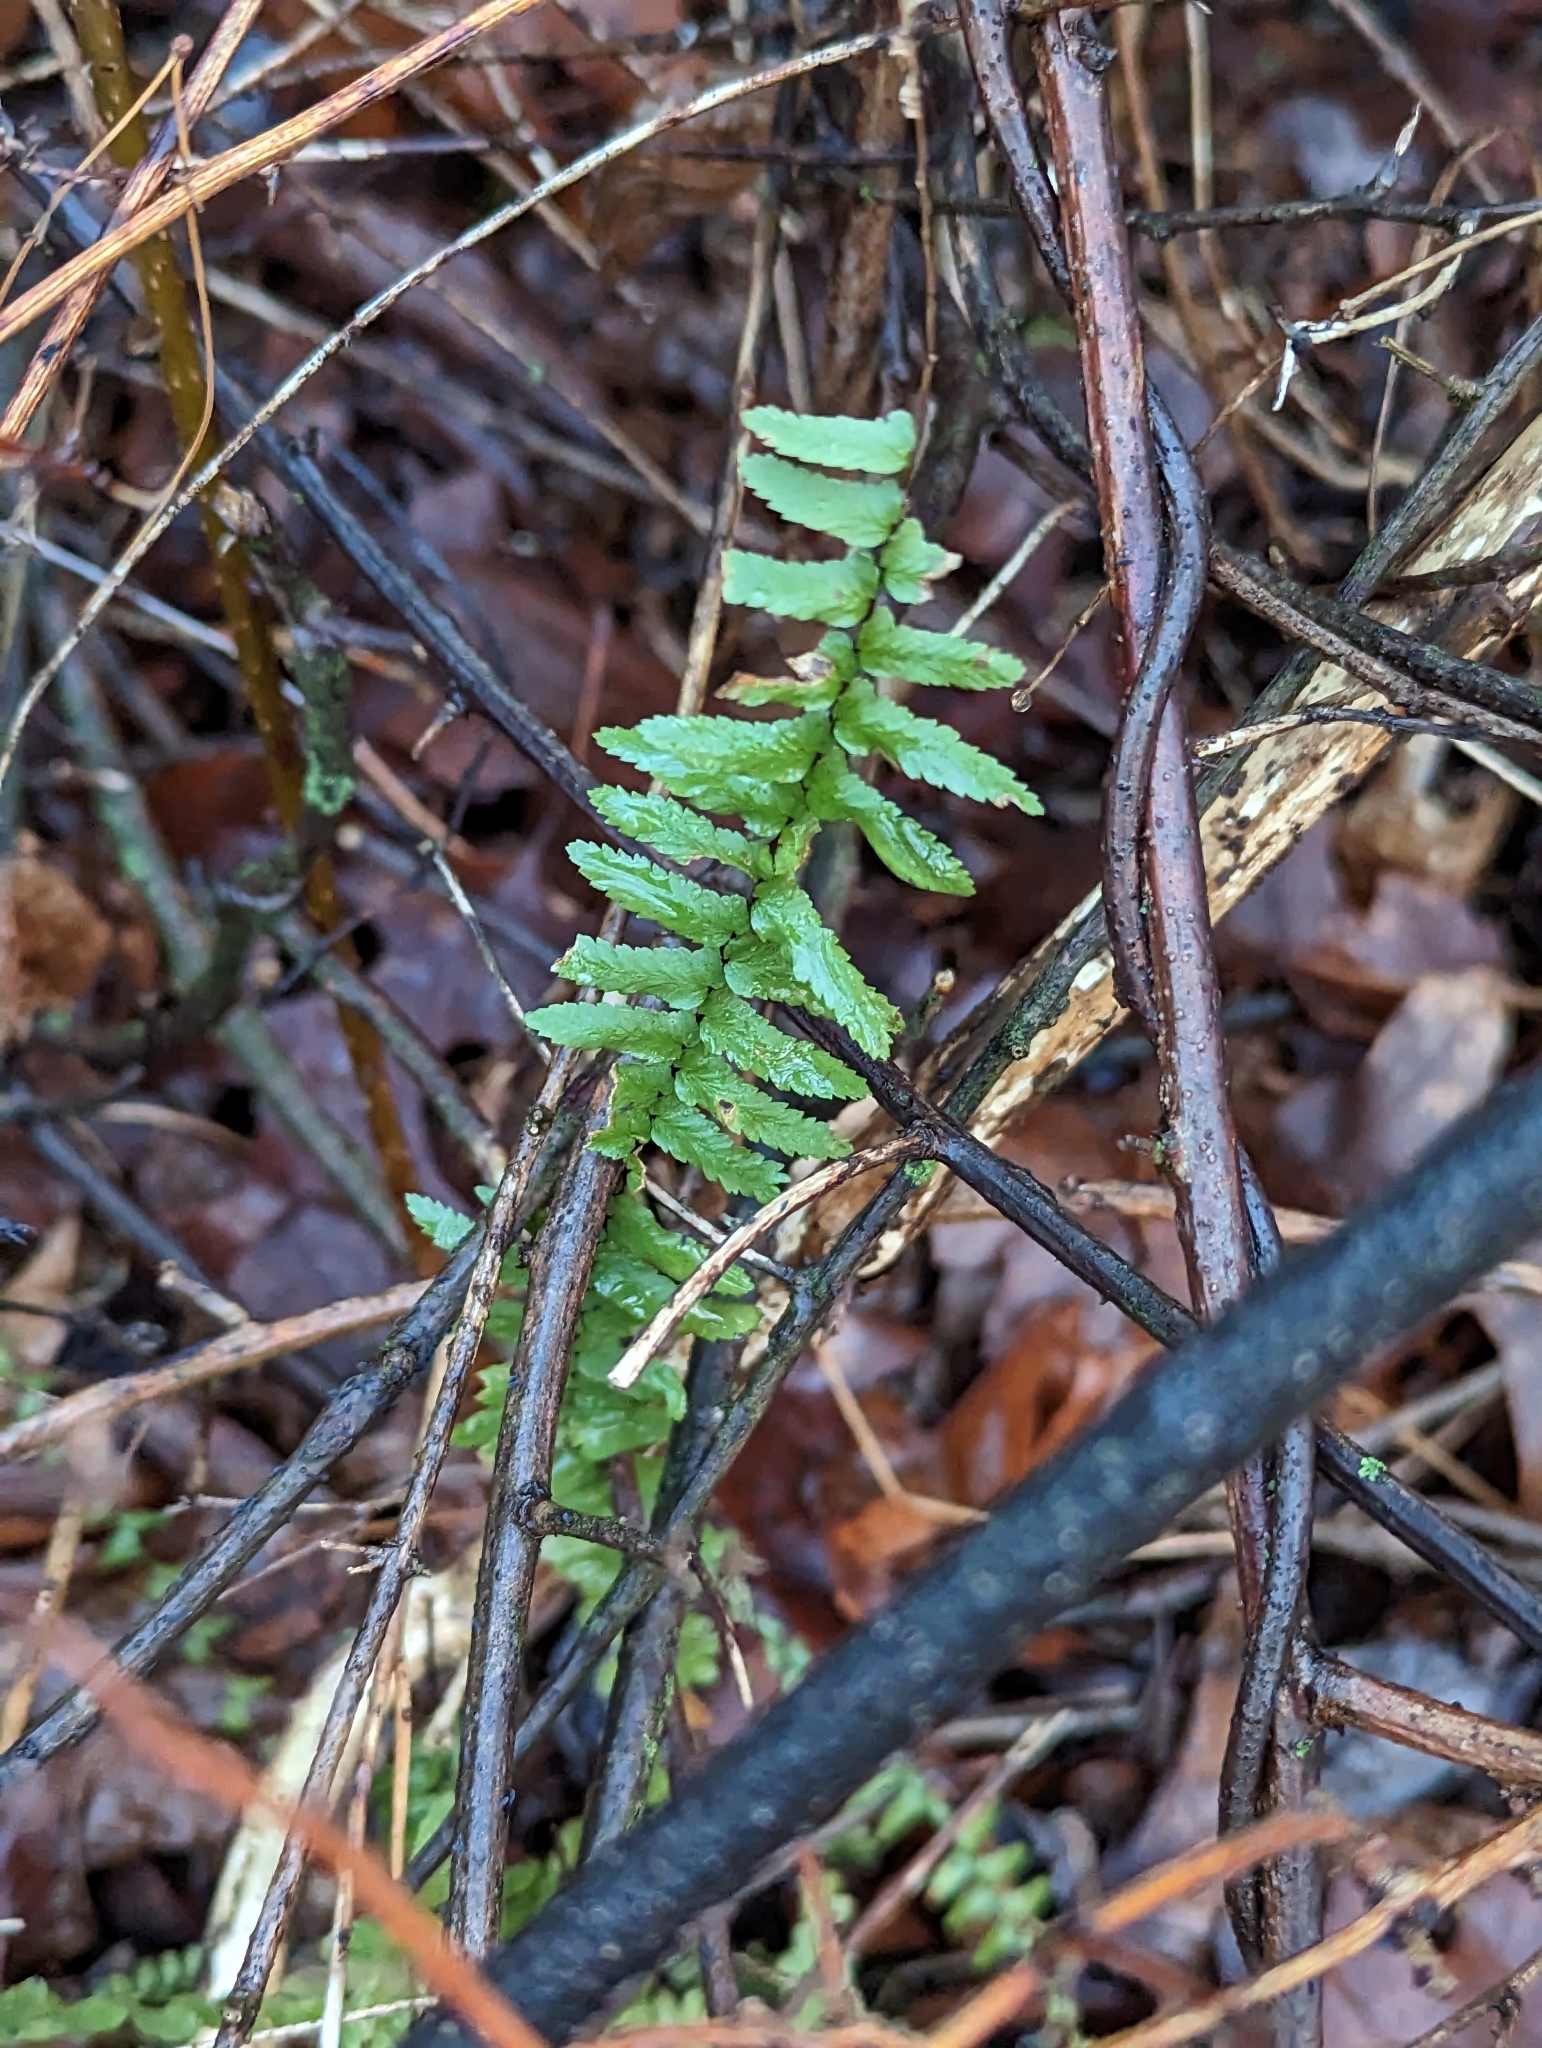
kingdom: Plantae
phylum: Tracheophyta
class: Polypodiopsida
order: Polypodiales
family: Aspleniaceae
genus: Asplenium
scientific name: Asplenium platyneuron
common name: Ebony spleenwort
